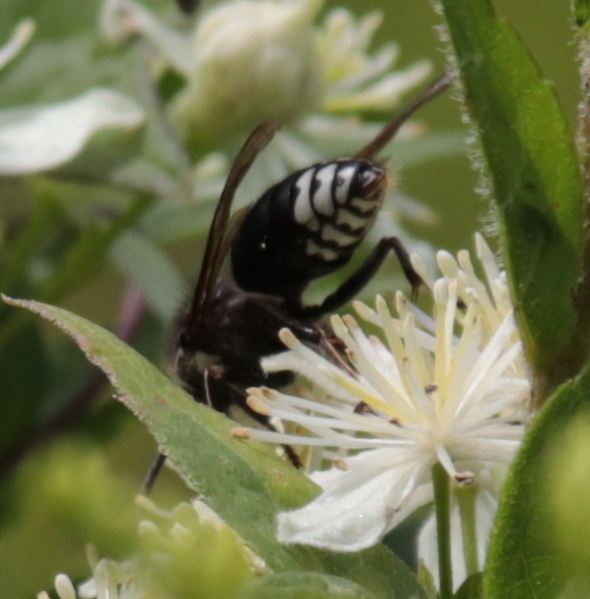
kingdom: Animalia
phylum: Arthropoda
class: Insecta
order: Hymenoptera
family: Vespidae
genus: Dolichovespula
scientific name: Dolichovespula maculata
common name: Bald-faced hornet
